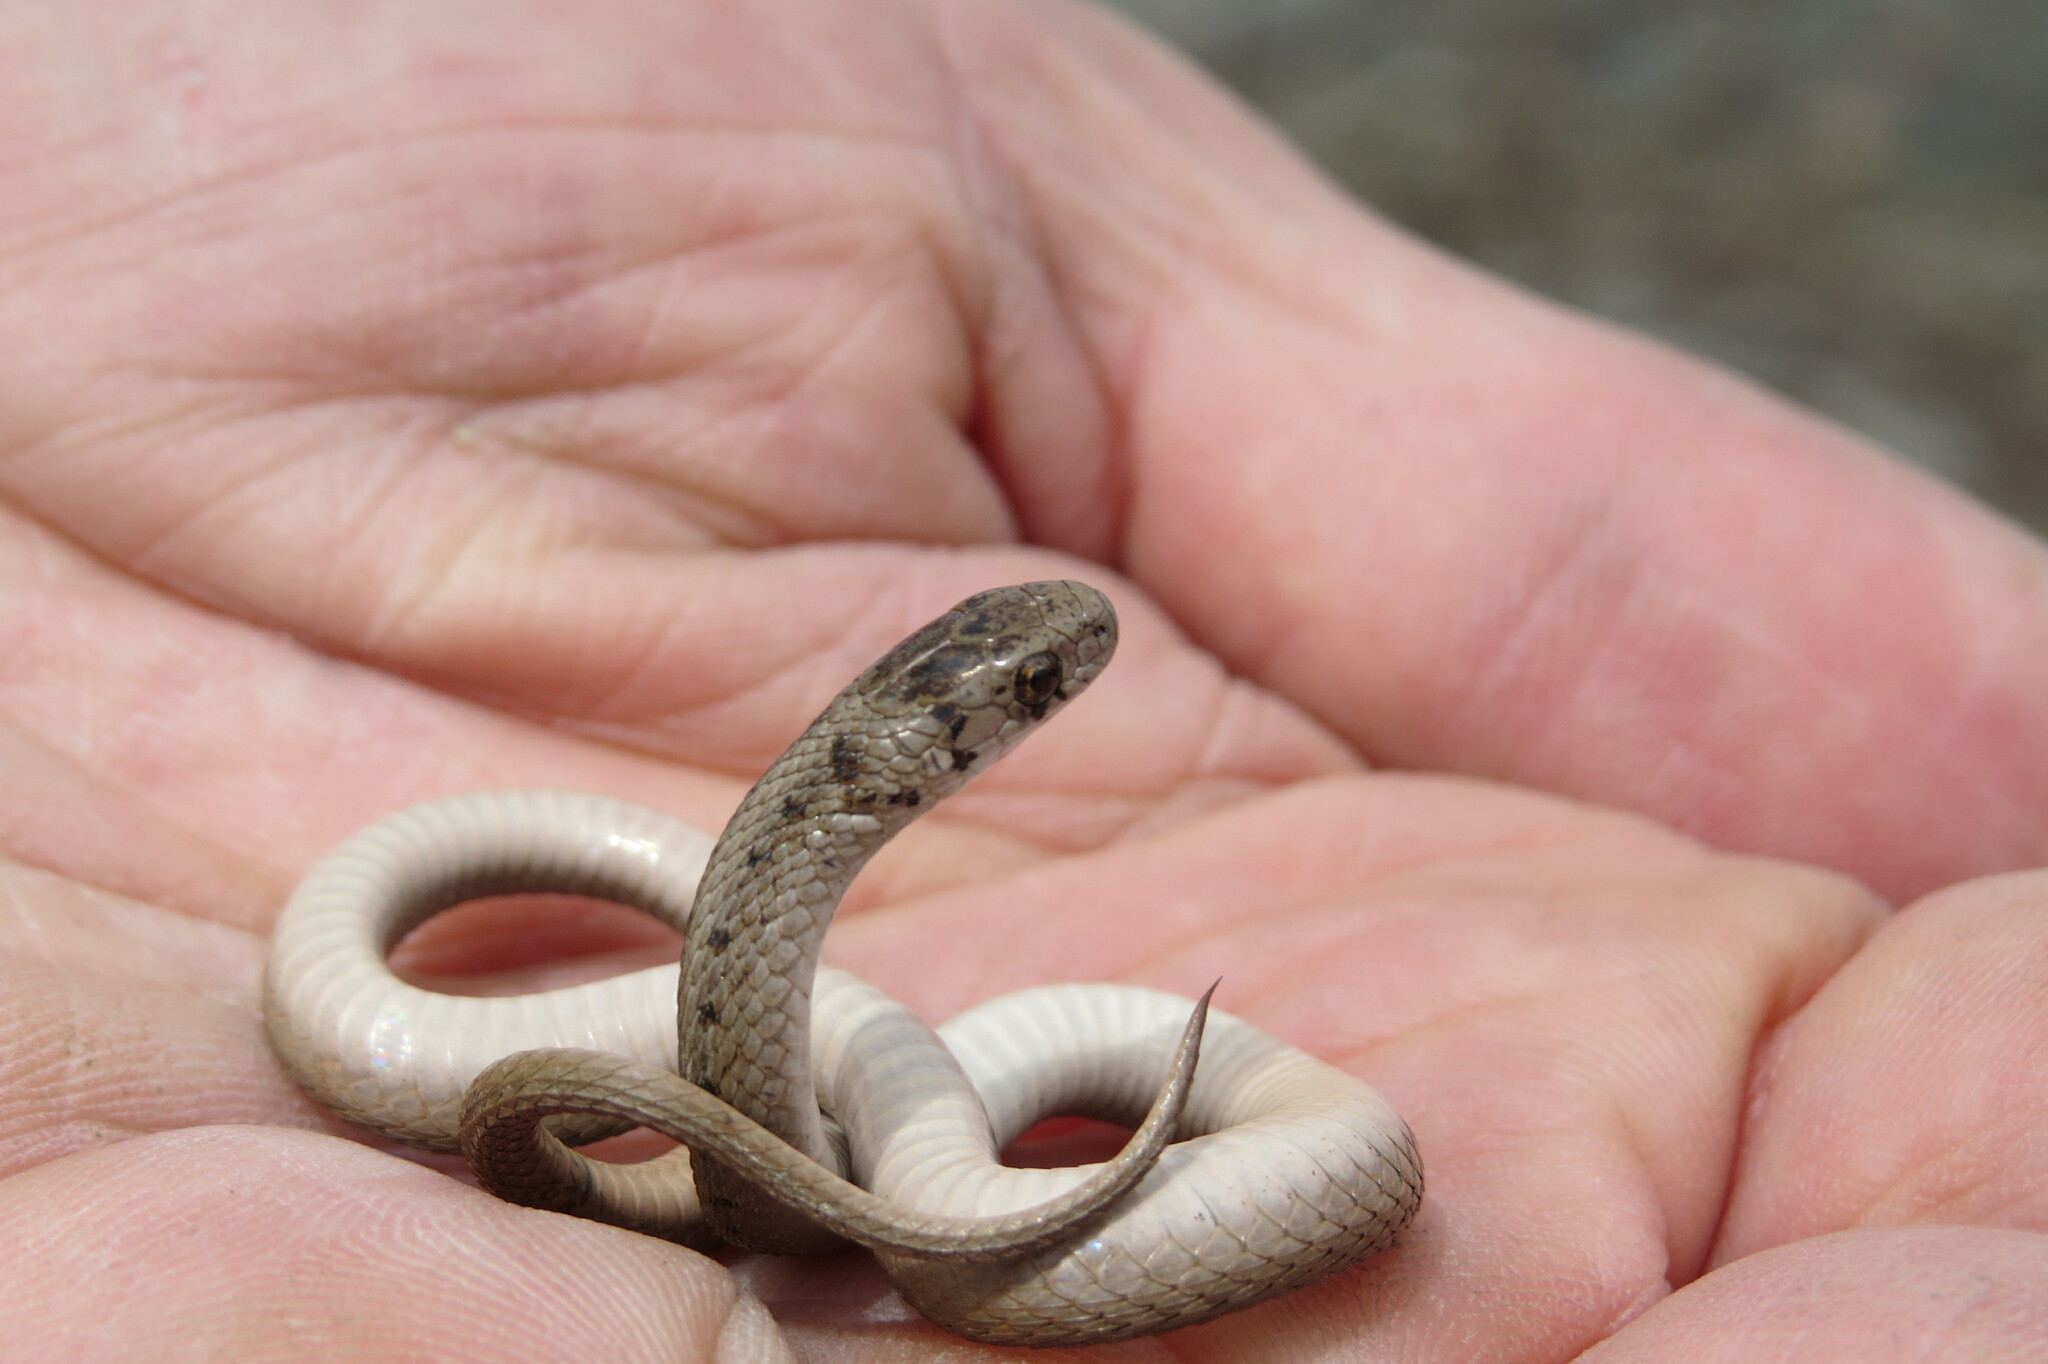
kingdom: Animalia
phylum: Chordata
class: Squamata
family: Colubridae
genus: Storeria
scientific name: Storeria dekayi
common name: (dekay’s) brown snake
